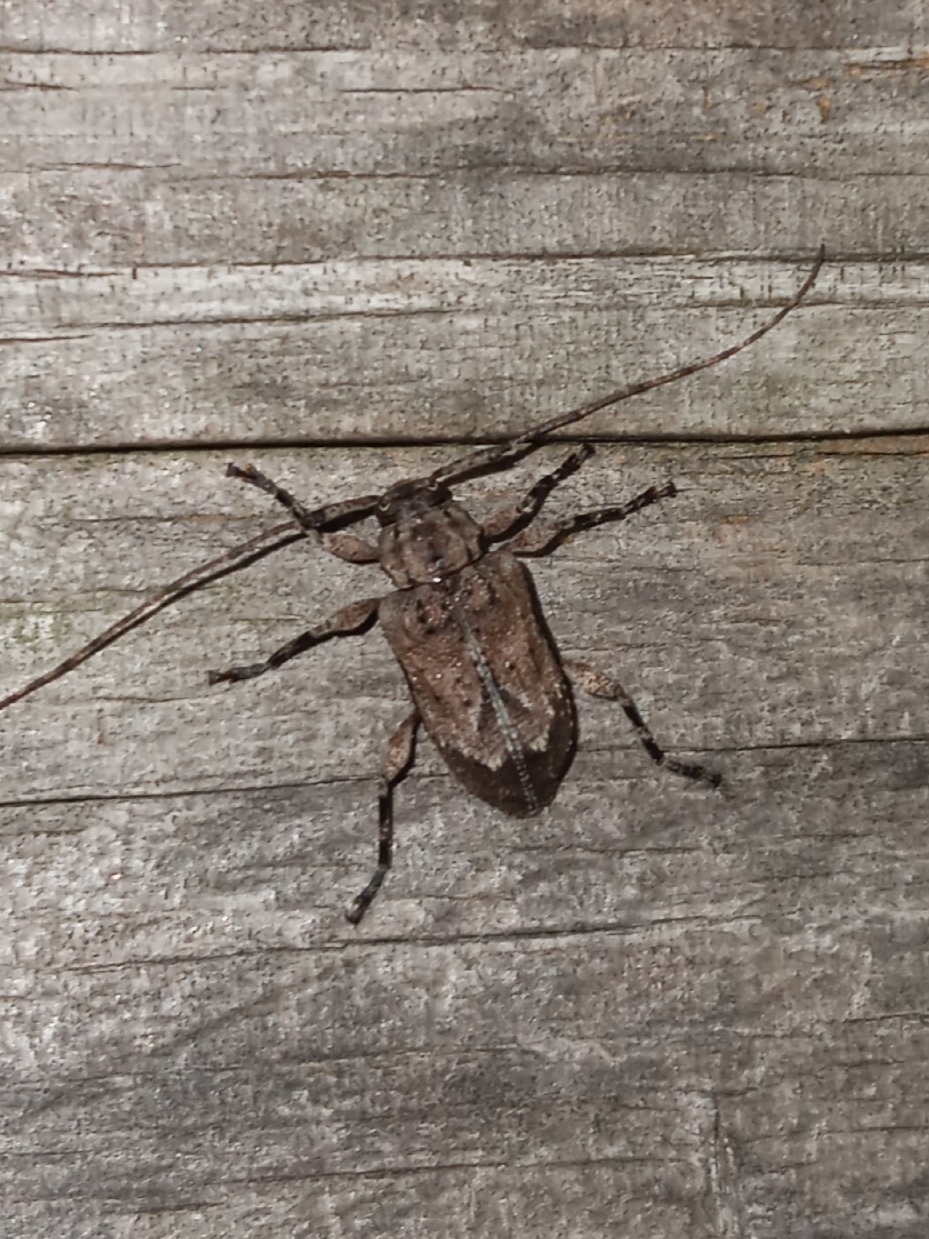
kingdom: Animalia
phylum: Arthropoda
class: Insecta
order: Coleoptera
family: Cerambycidae
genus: Astylopsis
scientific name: Astylopsis arcuata
